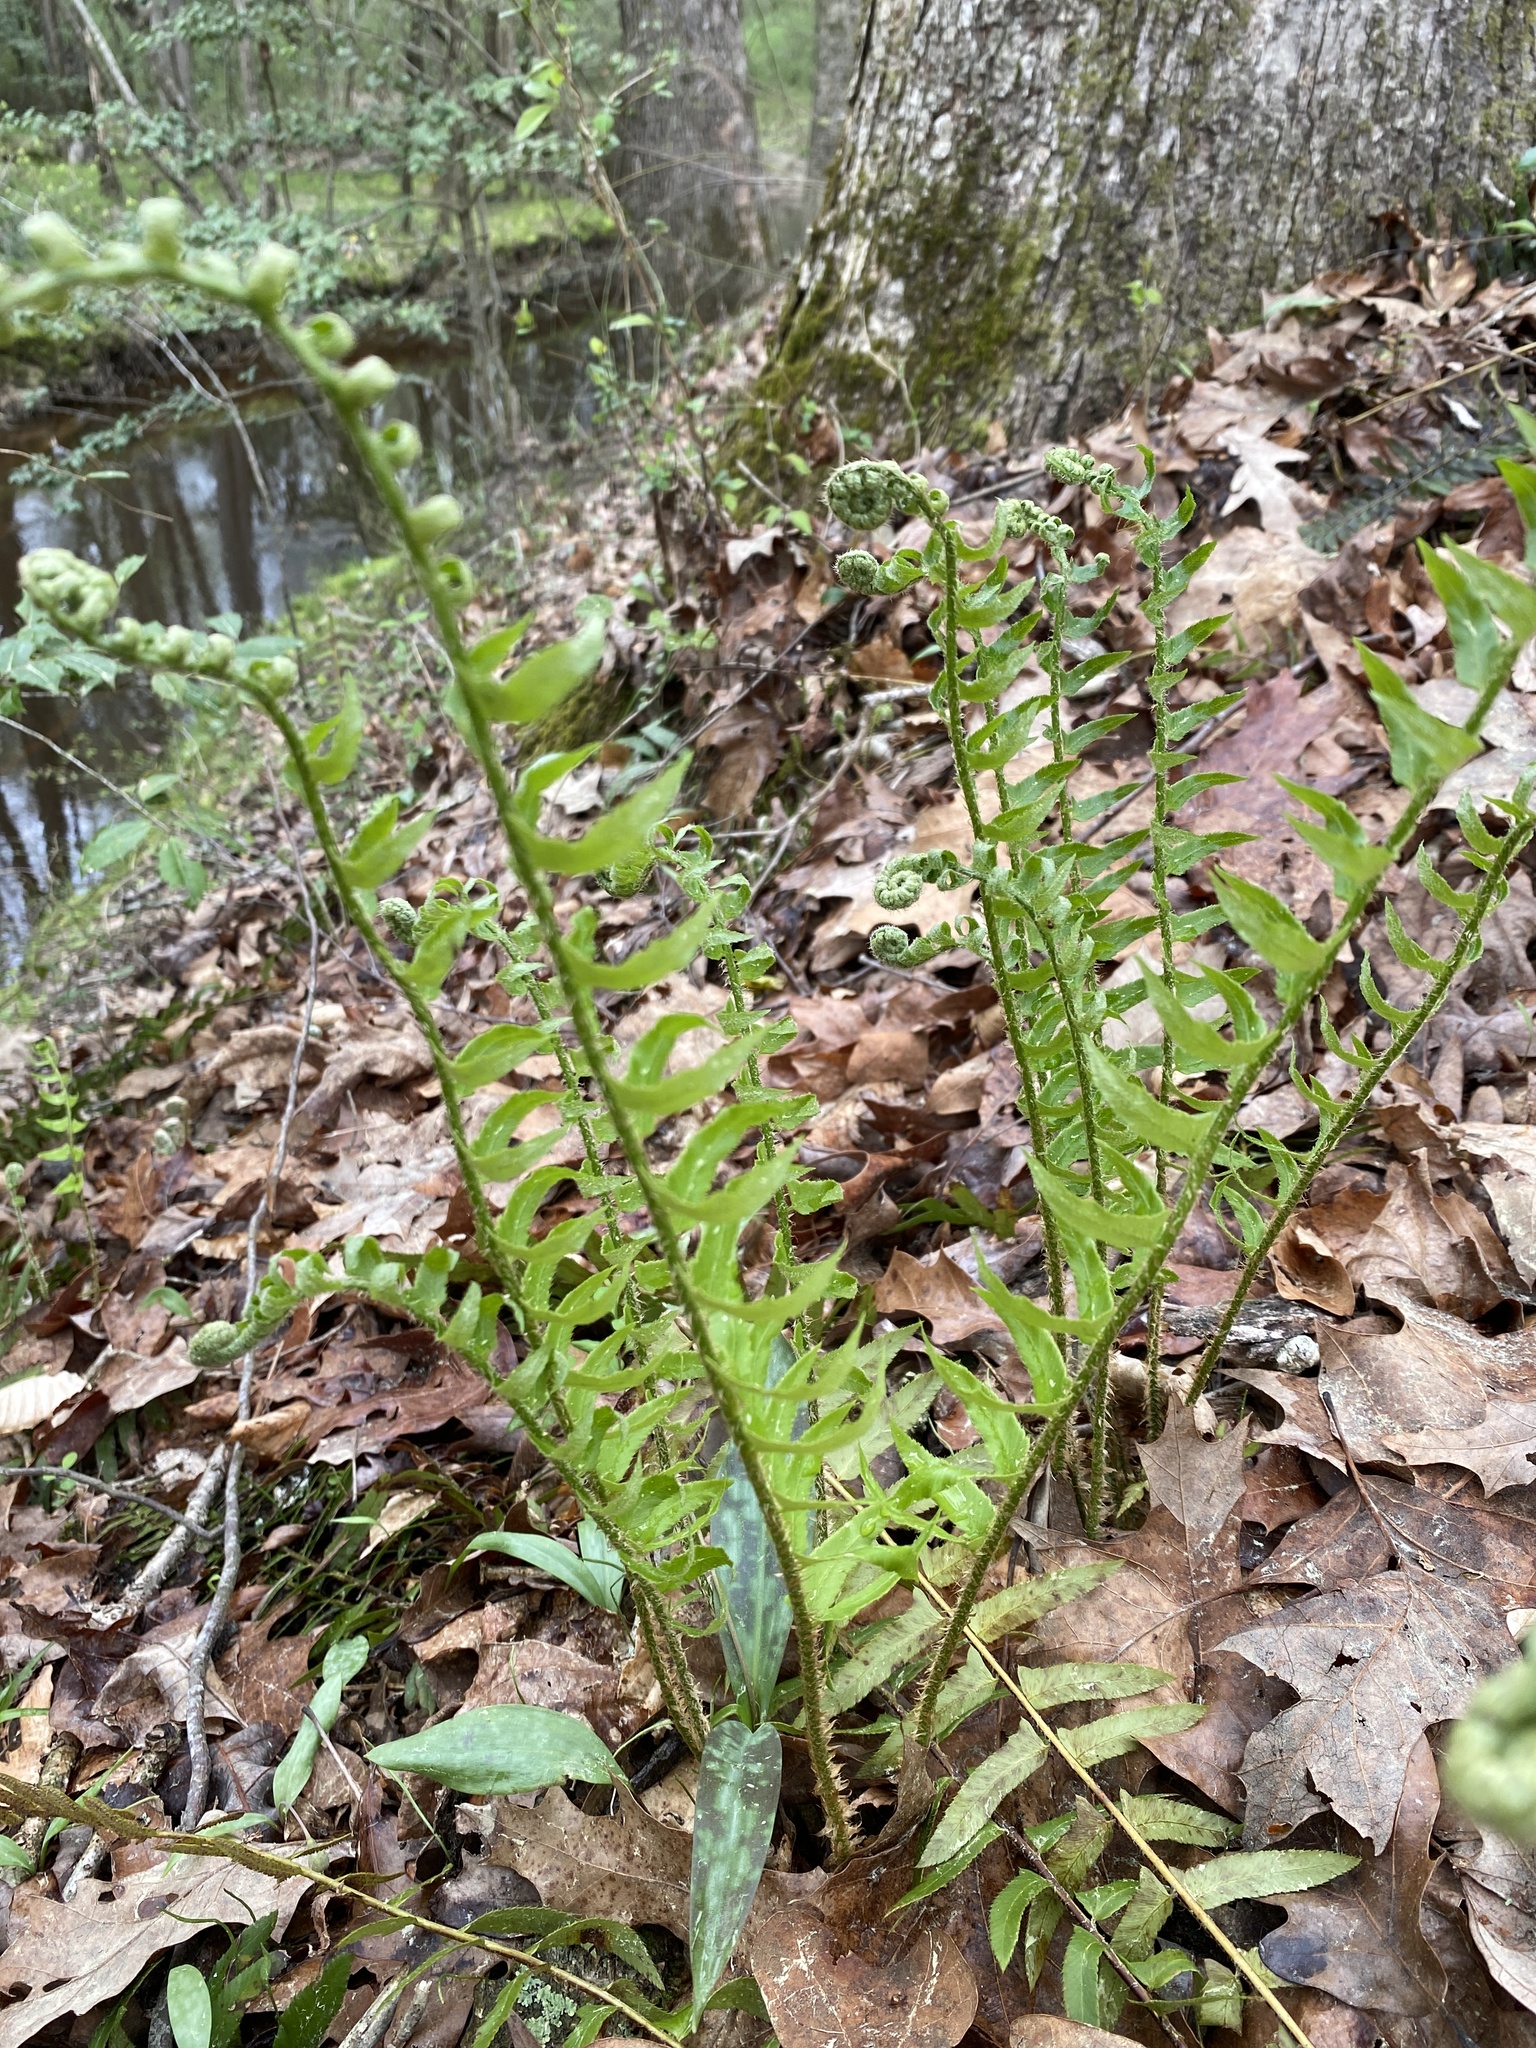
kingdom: Plantae
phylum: Tracheophyta
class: Polypodiopsida
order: Polypodiales
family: Dryopteridaceae
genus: Polystichum
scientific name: Polystichum acrostichoides
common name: Christmas fern
